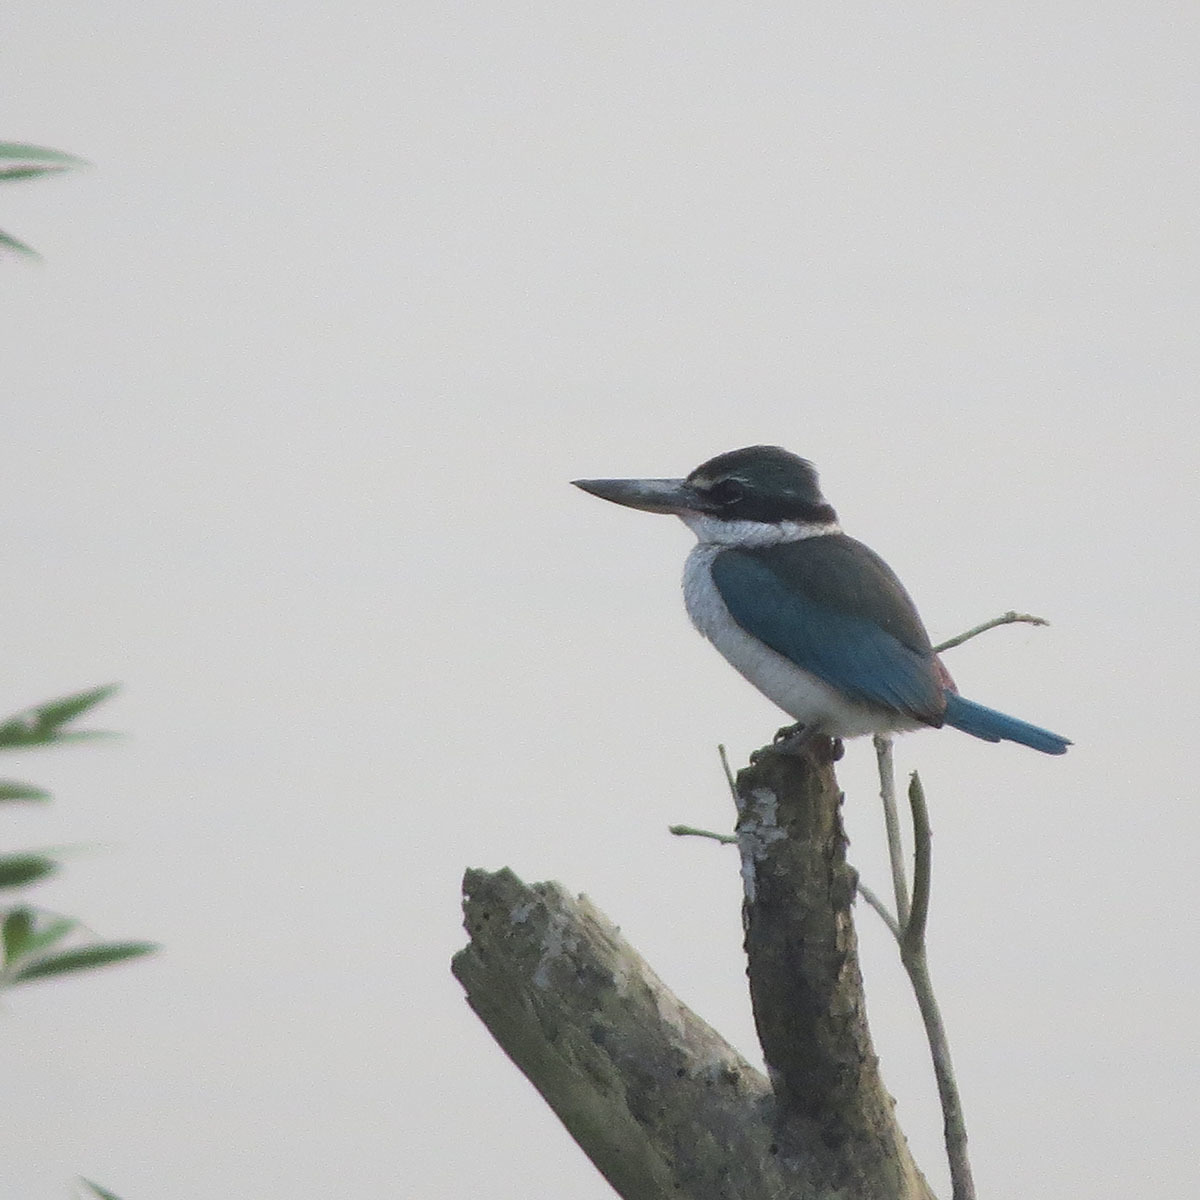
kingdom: Animalia
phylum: Chordata
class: Aves
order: Coraciiformes
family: Alcedinidae
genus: Todiramphus
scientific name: Todiramphus chloris
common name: Collared kingfisher
